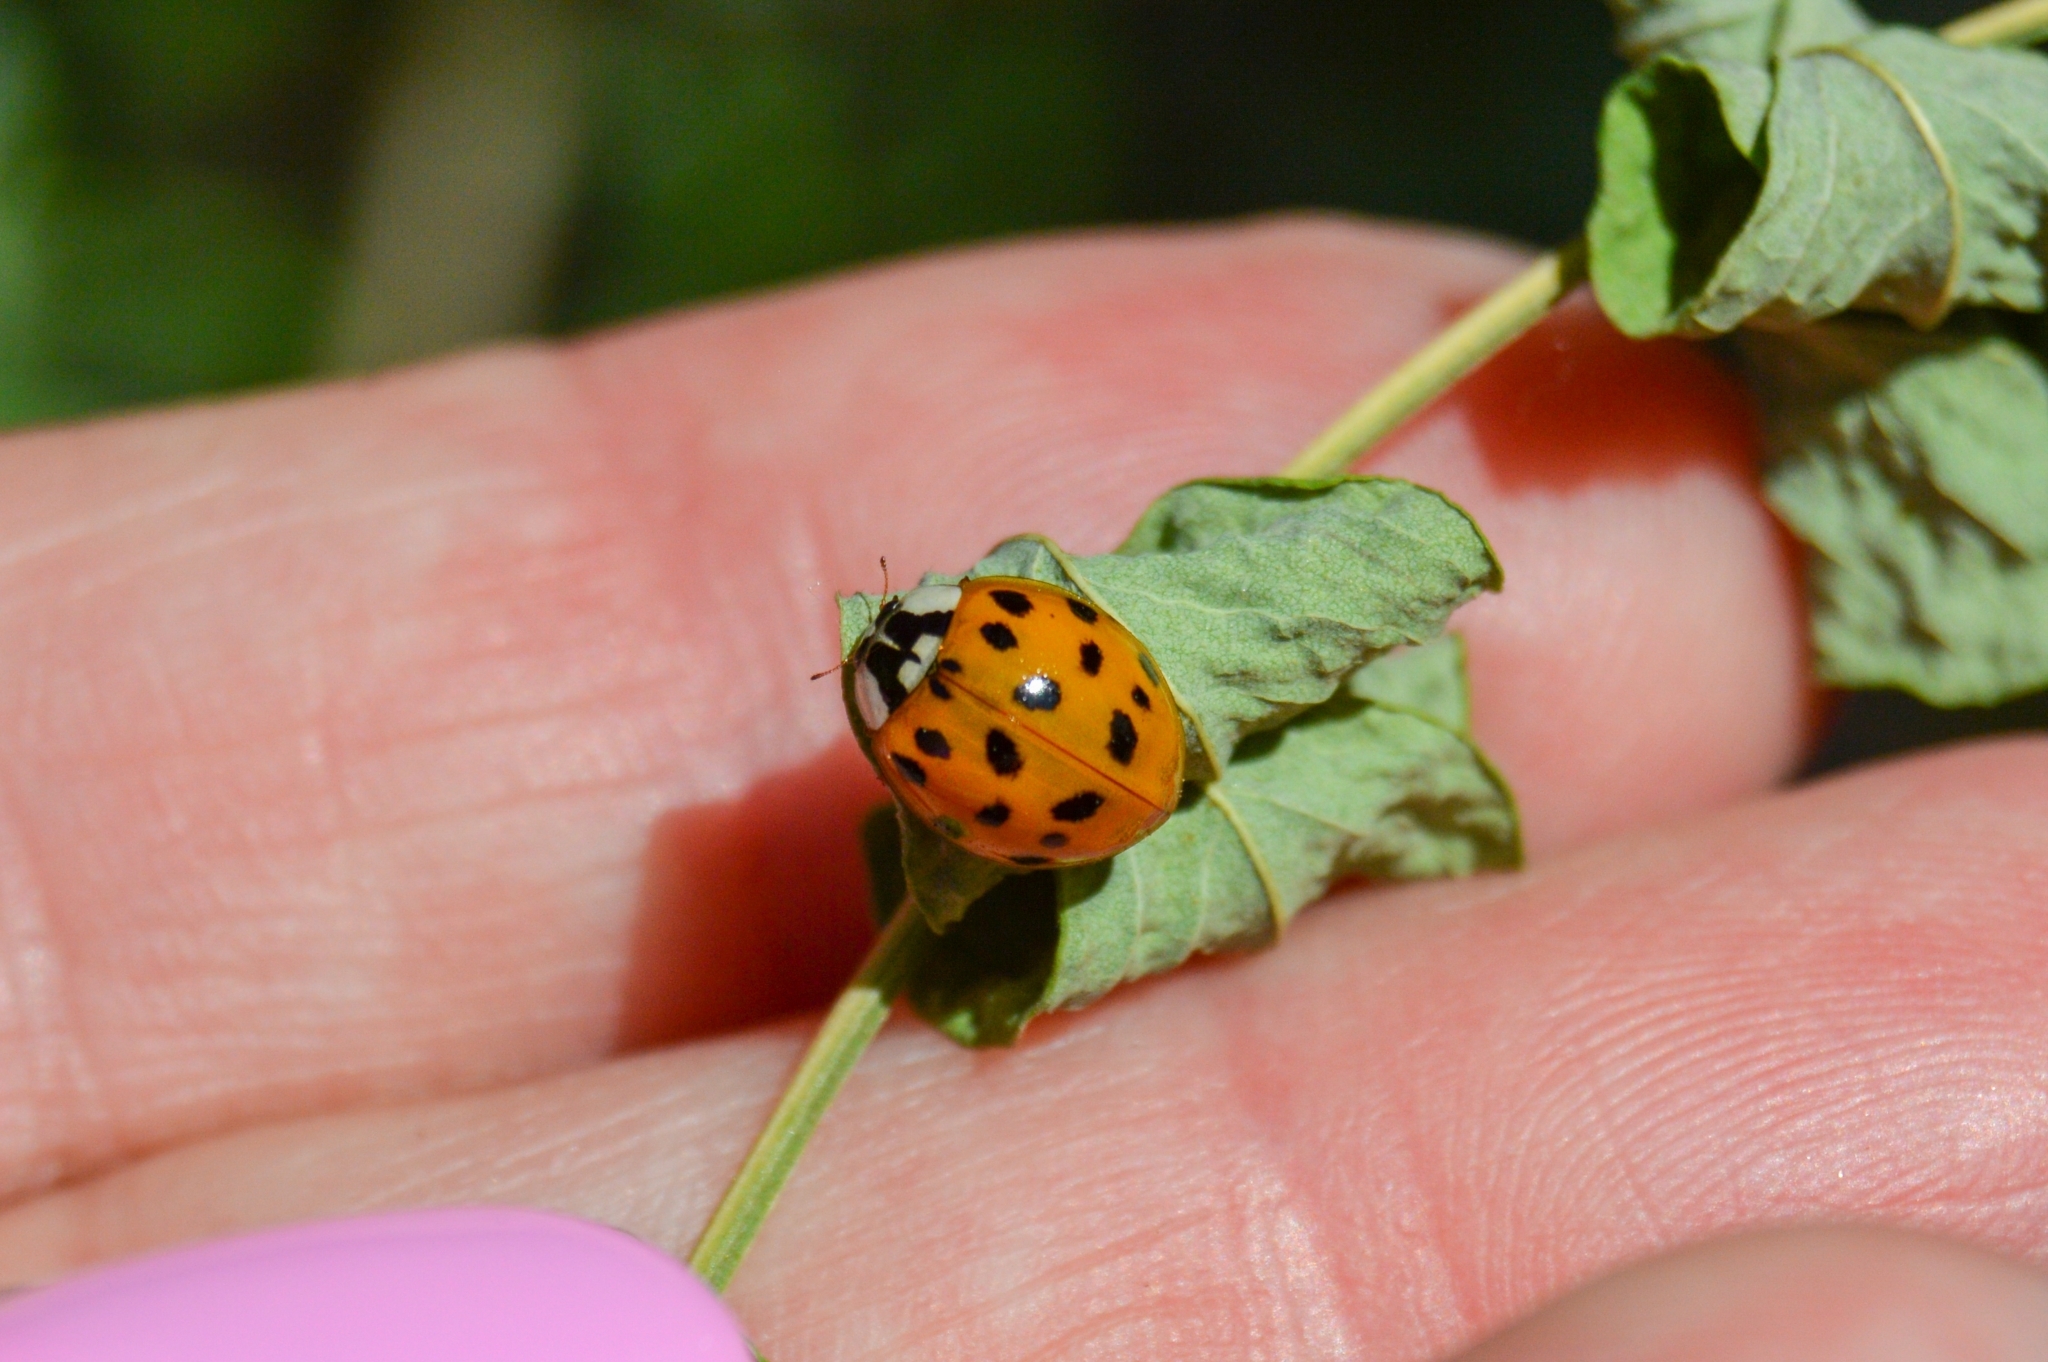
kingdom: Animalia
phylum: Arthropoda
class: Insecta
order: Coleoptera
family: Coccinellidae
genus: Harmonia
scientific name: Harmonia axyridis
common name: Harlequin ladybird
